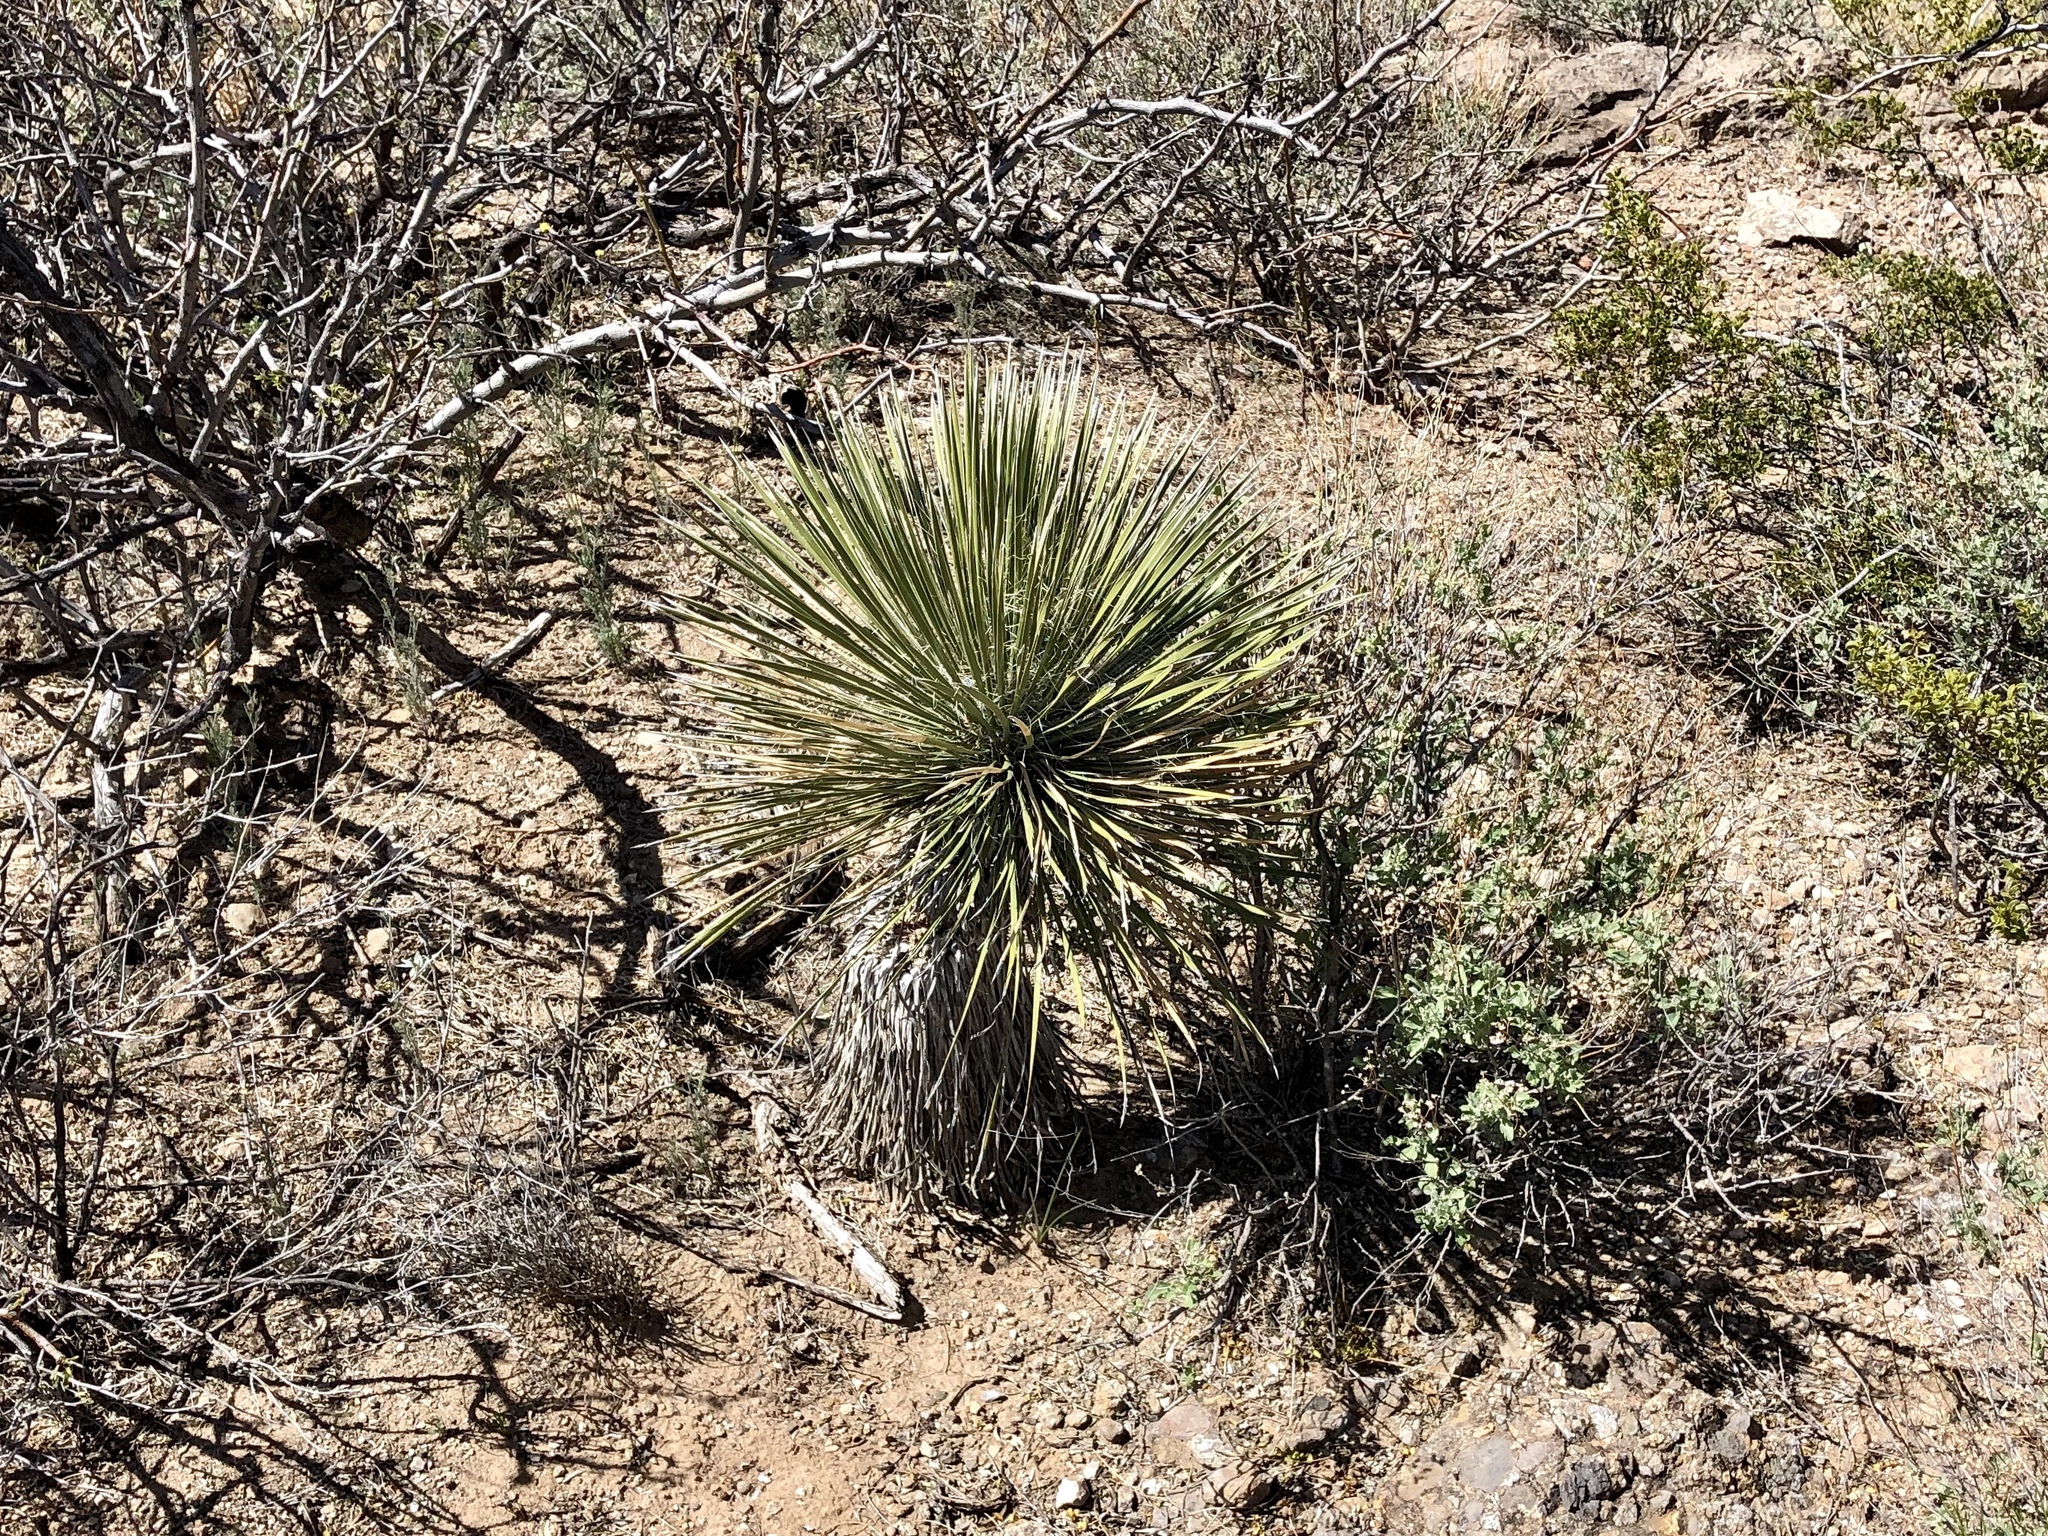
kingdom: Plantae
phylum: Tracheophyta
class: Liliopsida
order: Asparagales
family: Asparagaceae
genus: Yucca
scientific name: Yucca elata
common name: Palmella
